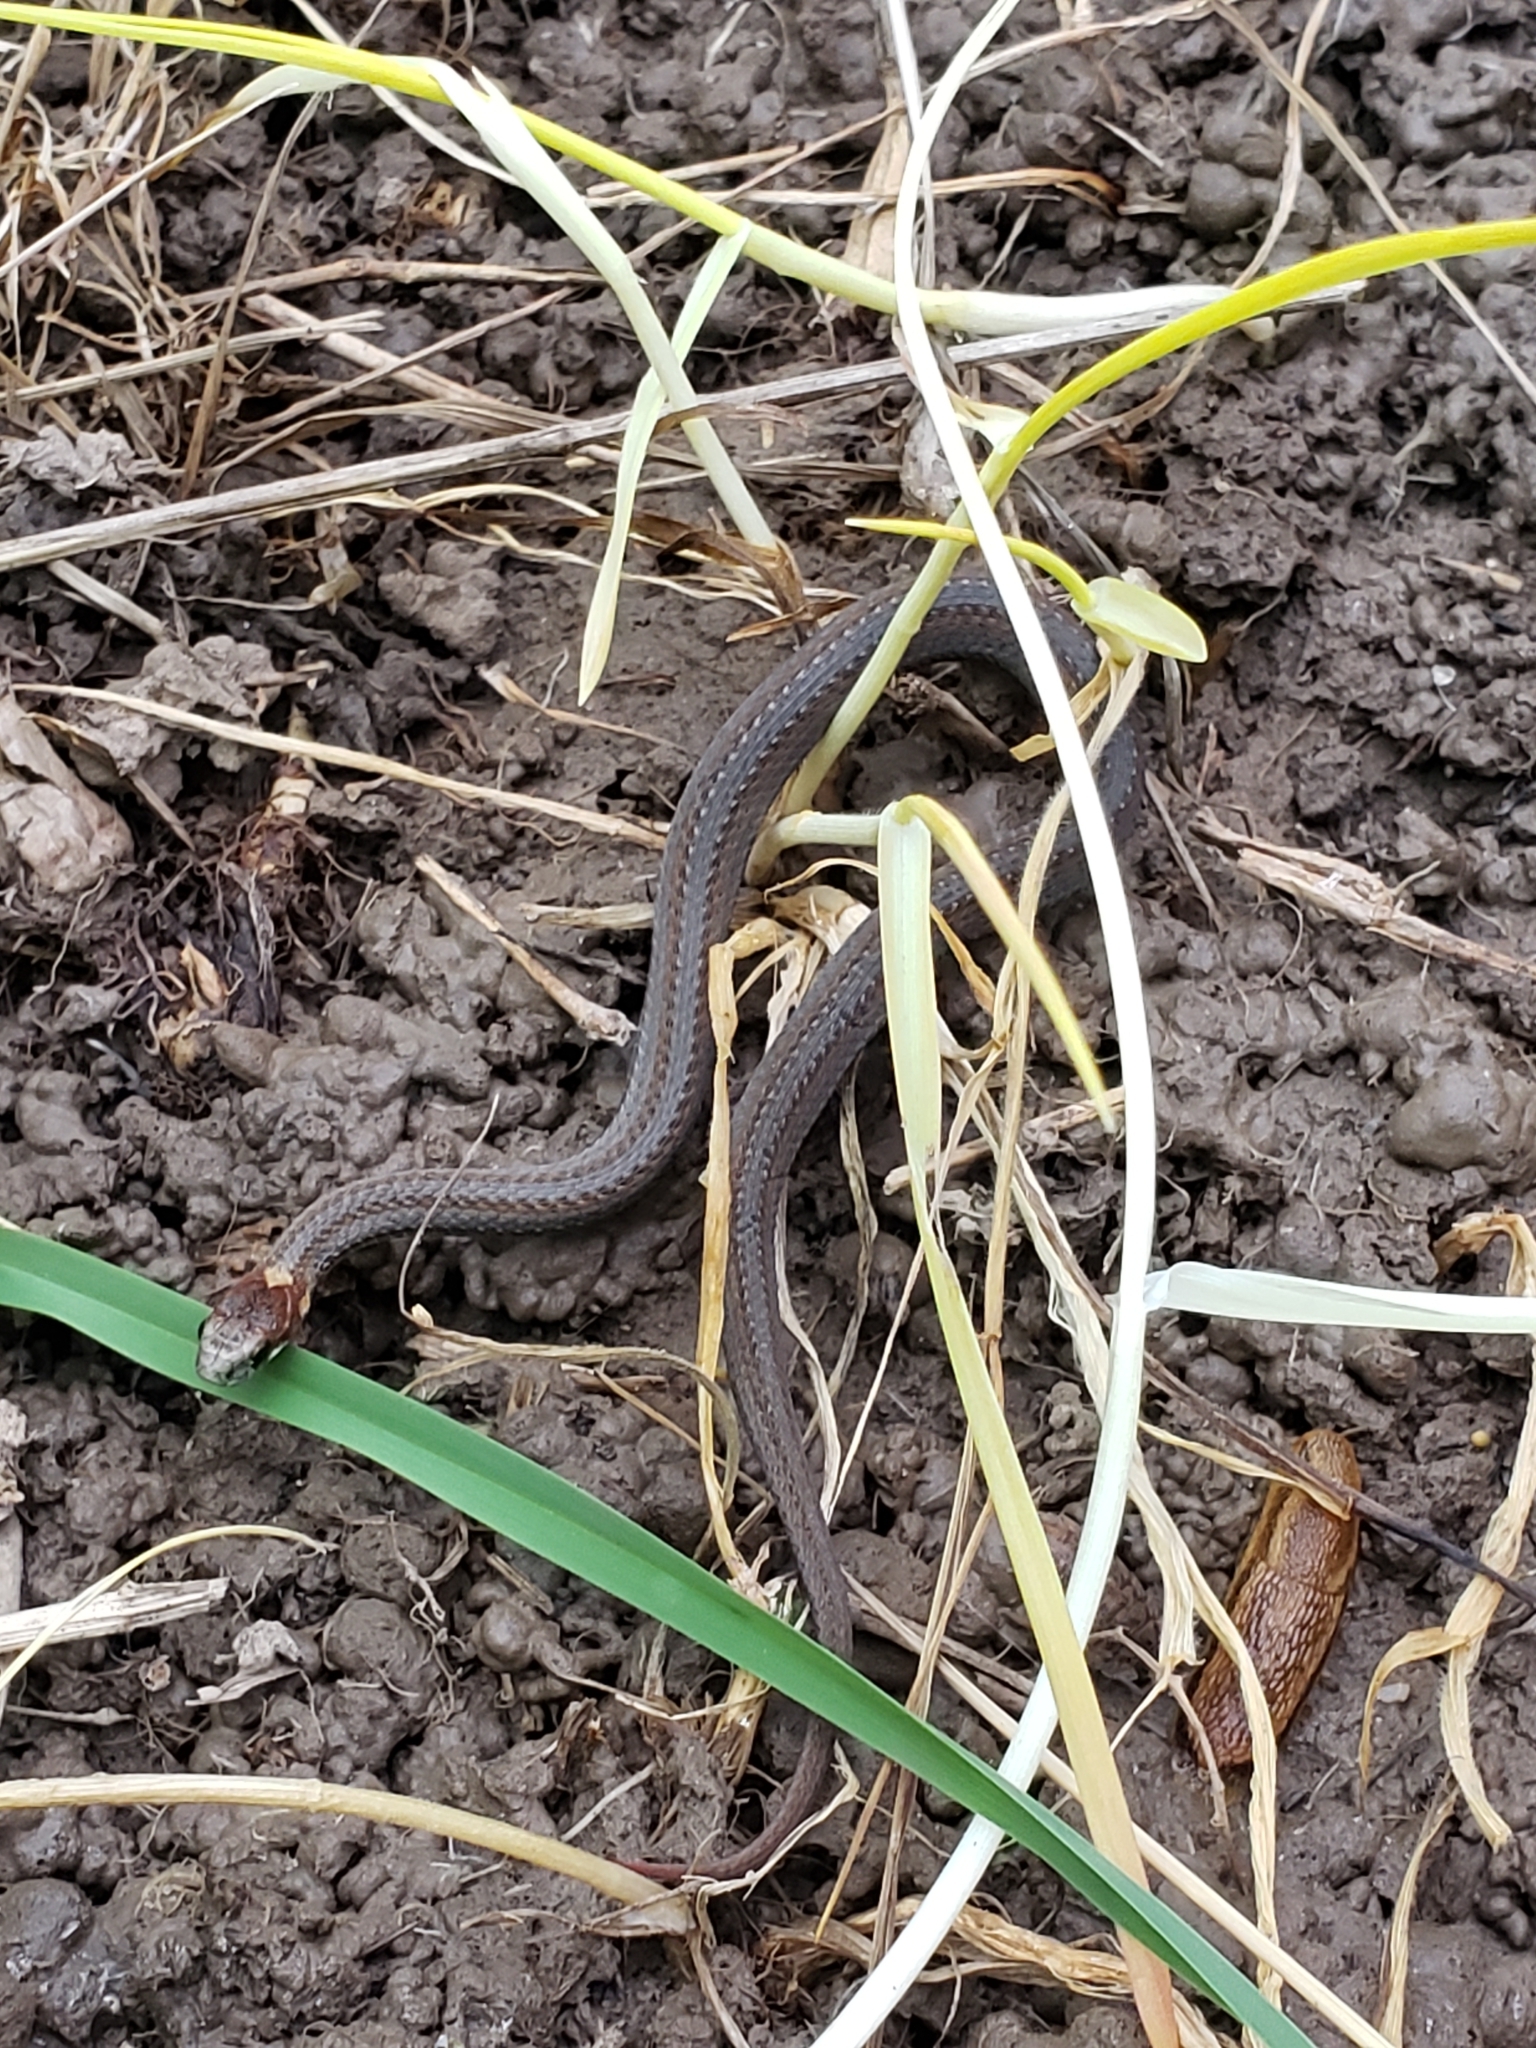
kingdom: Animalia
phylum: Chordata
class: Squamata
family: Colubridae
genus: Storeria
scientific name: Storeria occipitomaculata
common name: Redbelly snake
